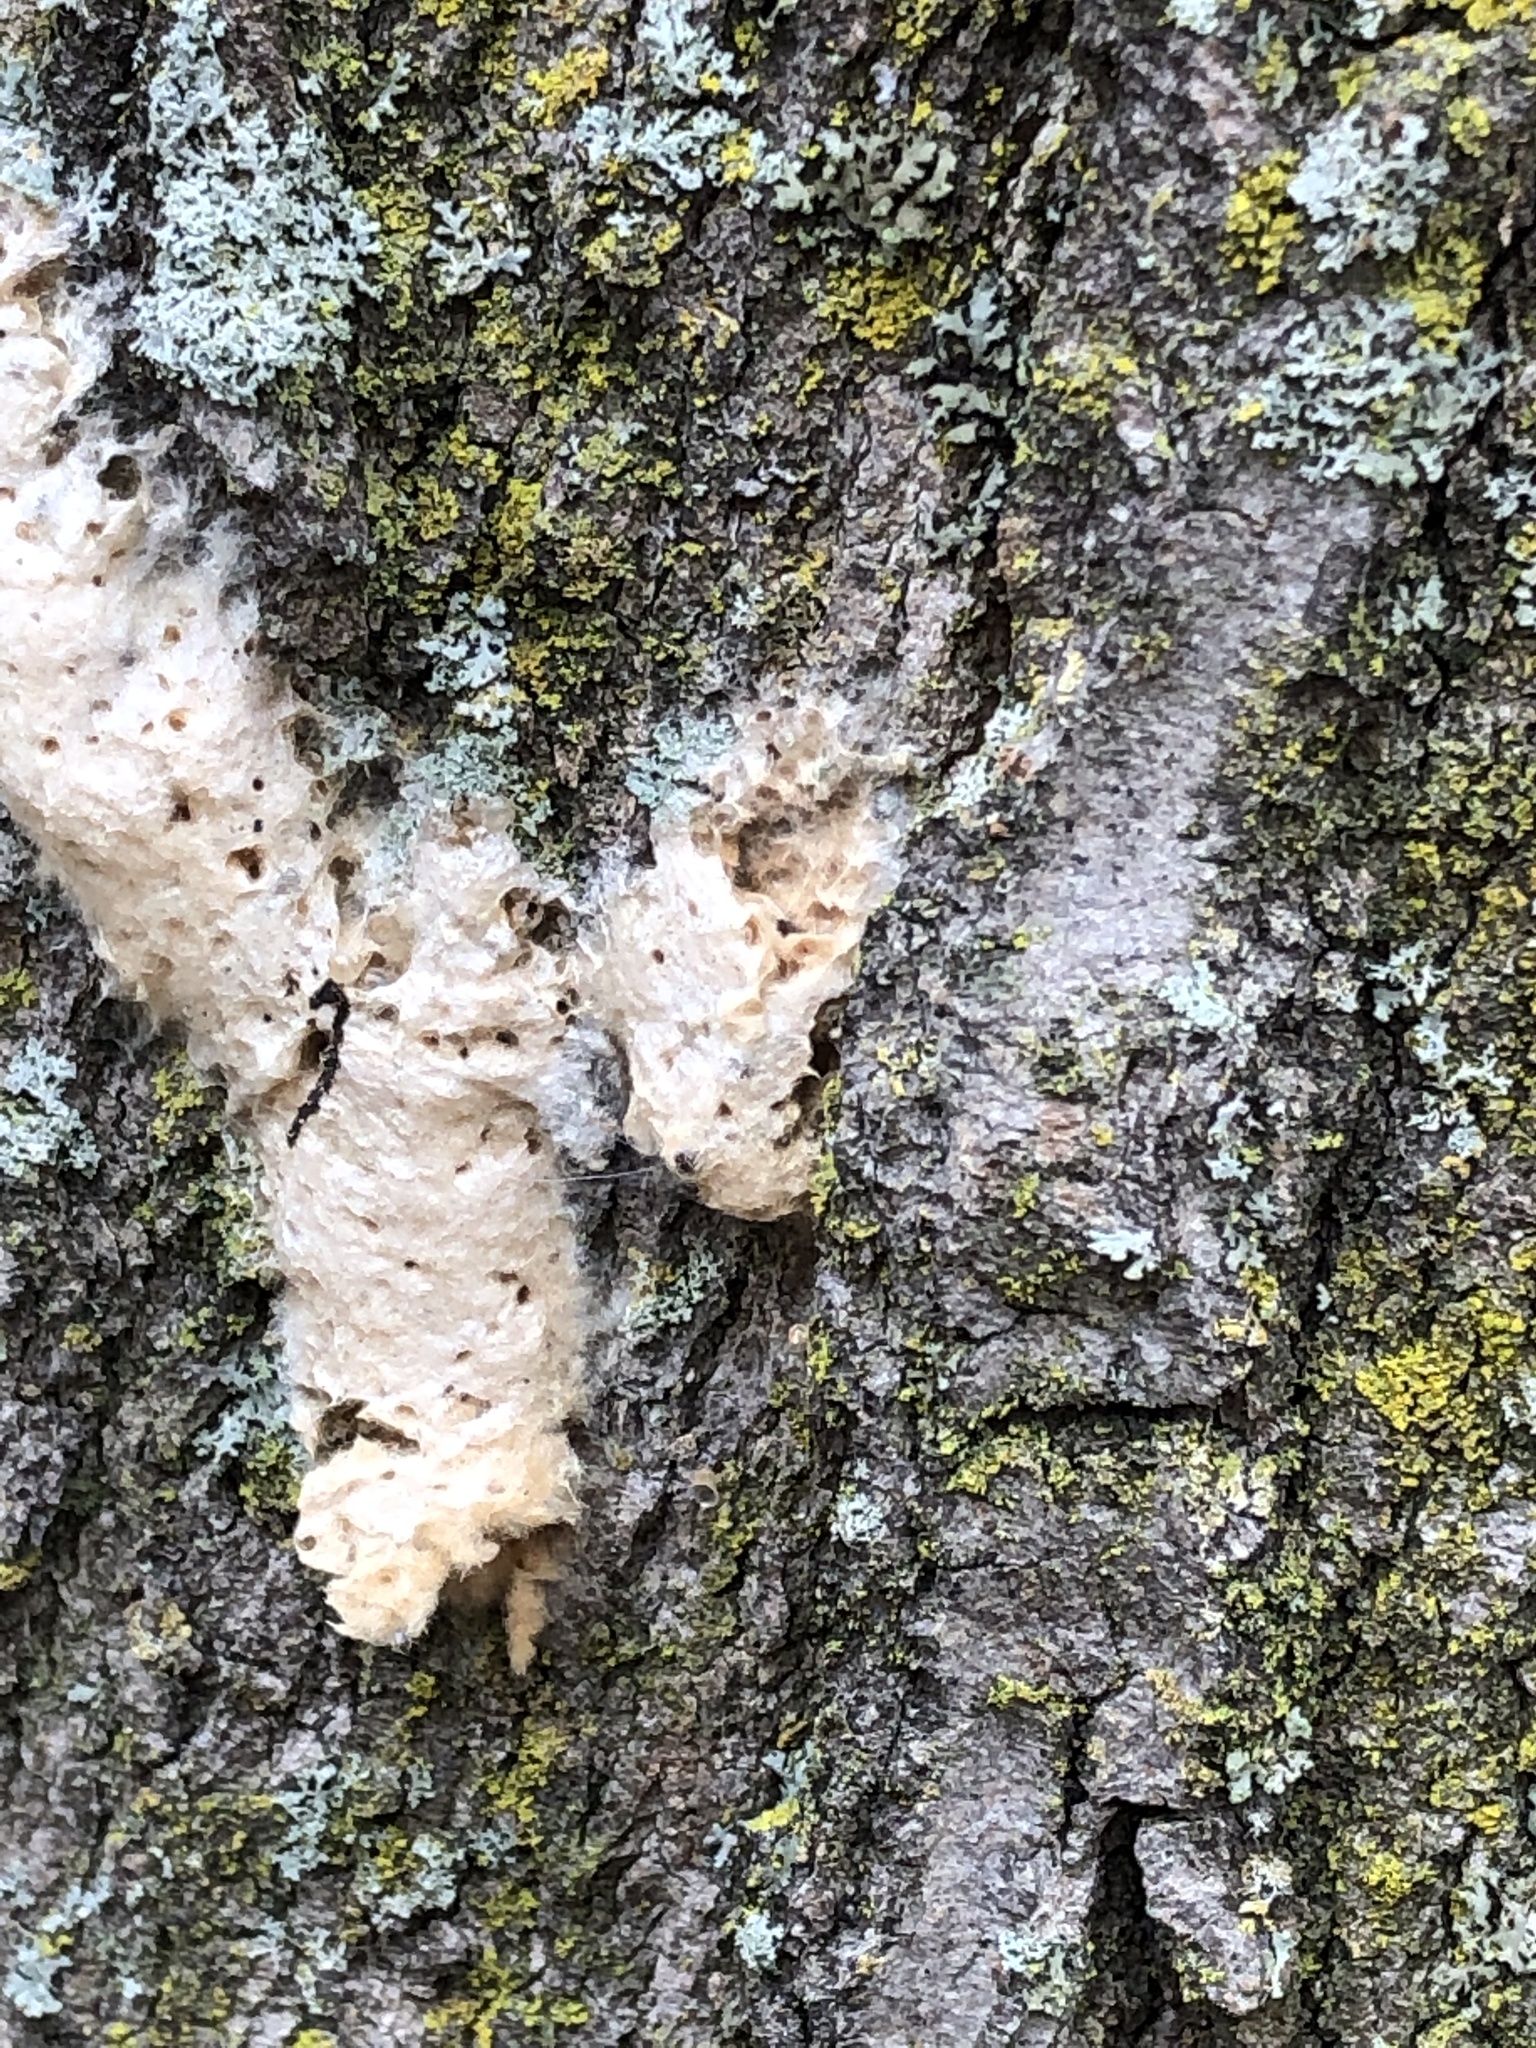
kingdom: Animalia
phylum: Arthropoda
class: Insecta
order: Lepidoptera
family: Erebidae
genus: Lymantria
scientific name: Lymantria dispar
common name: Gypsy moth
